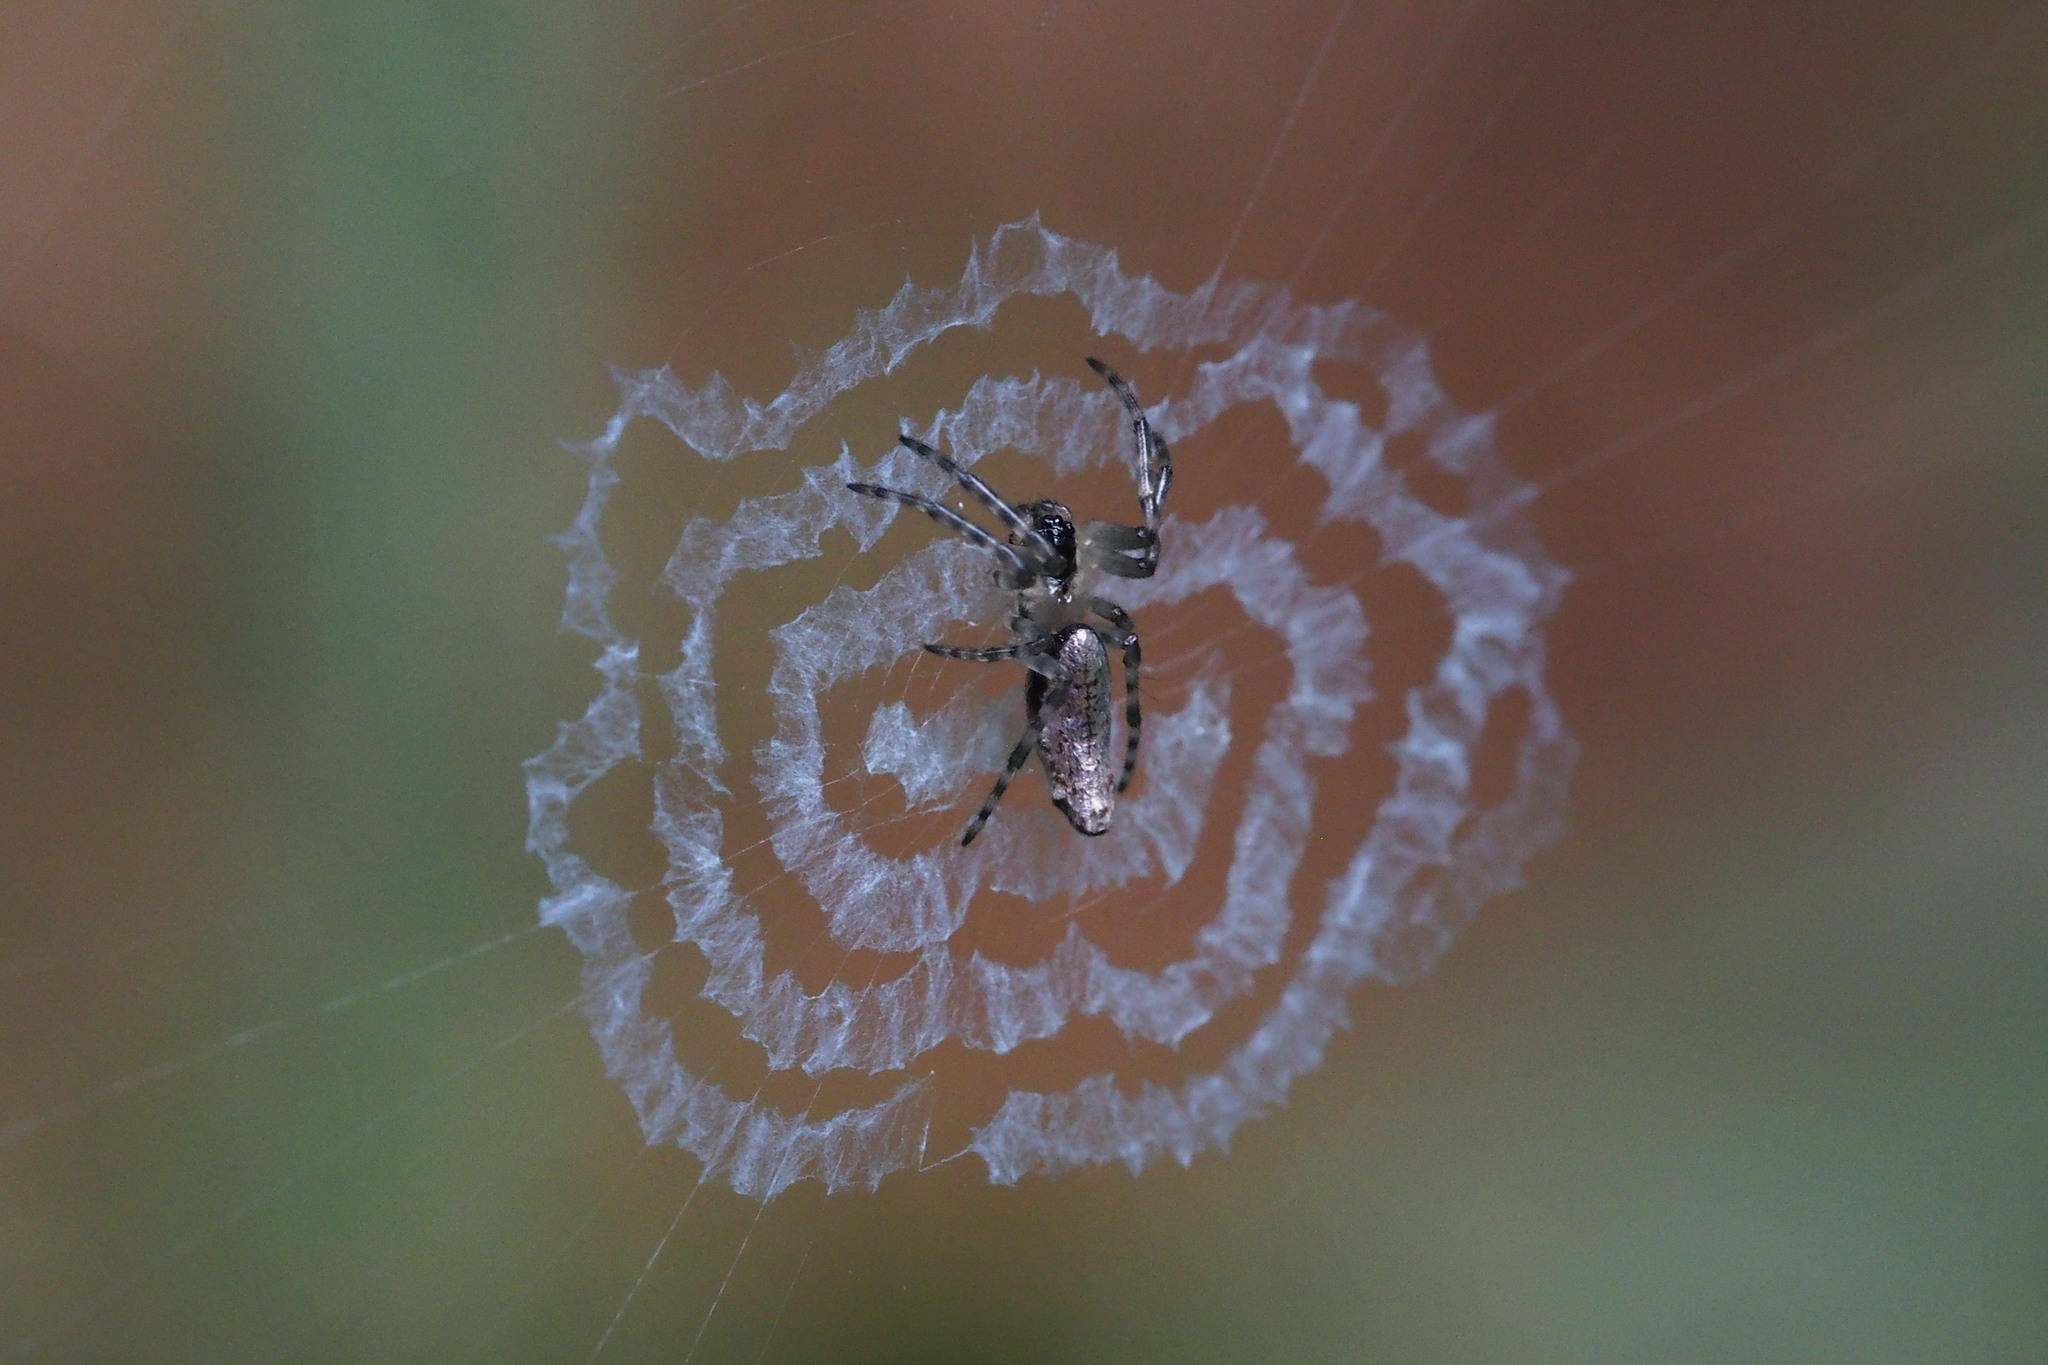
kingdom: Animalia
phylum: Arthropoda
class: Arachnida
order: Araneae
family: Araneidae
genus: Cyclosa
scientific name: Cyclosa ginnaga
